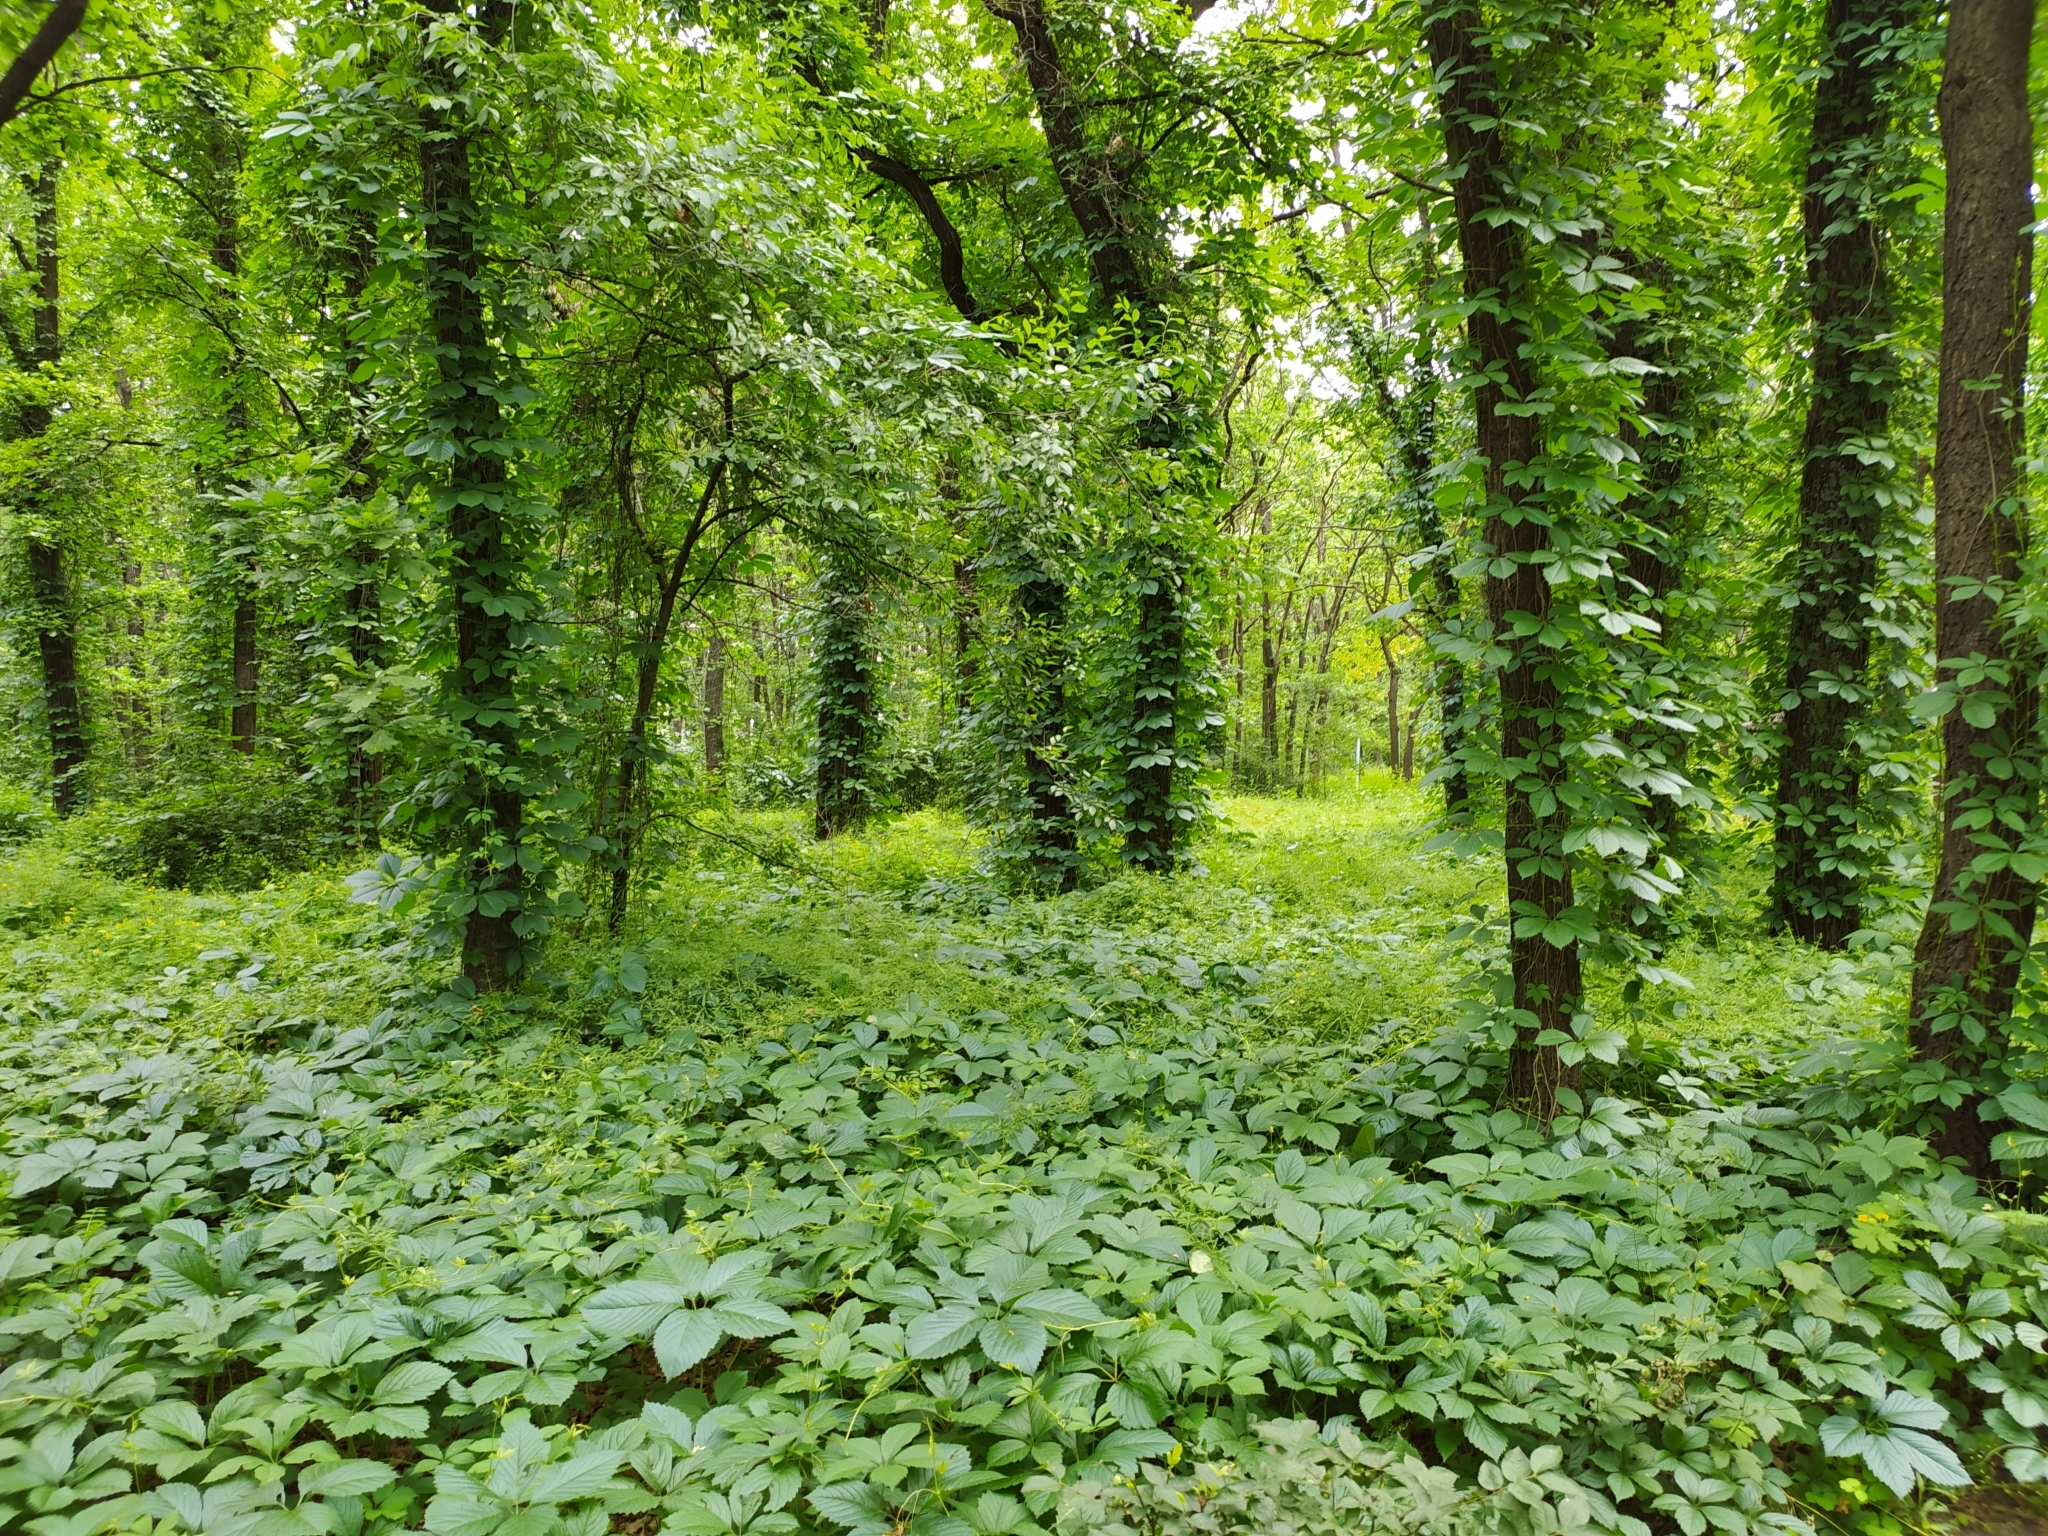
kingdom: Plantae
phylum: Tracheophyta
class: Magnoliopsida
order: Vitales
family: Vitaceae
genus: Parthenocissus
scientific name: Parthenocissus inserta
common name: False virginia-creeper
